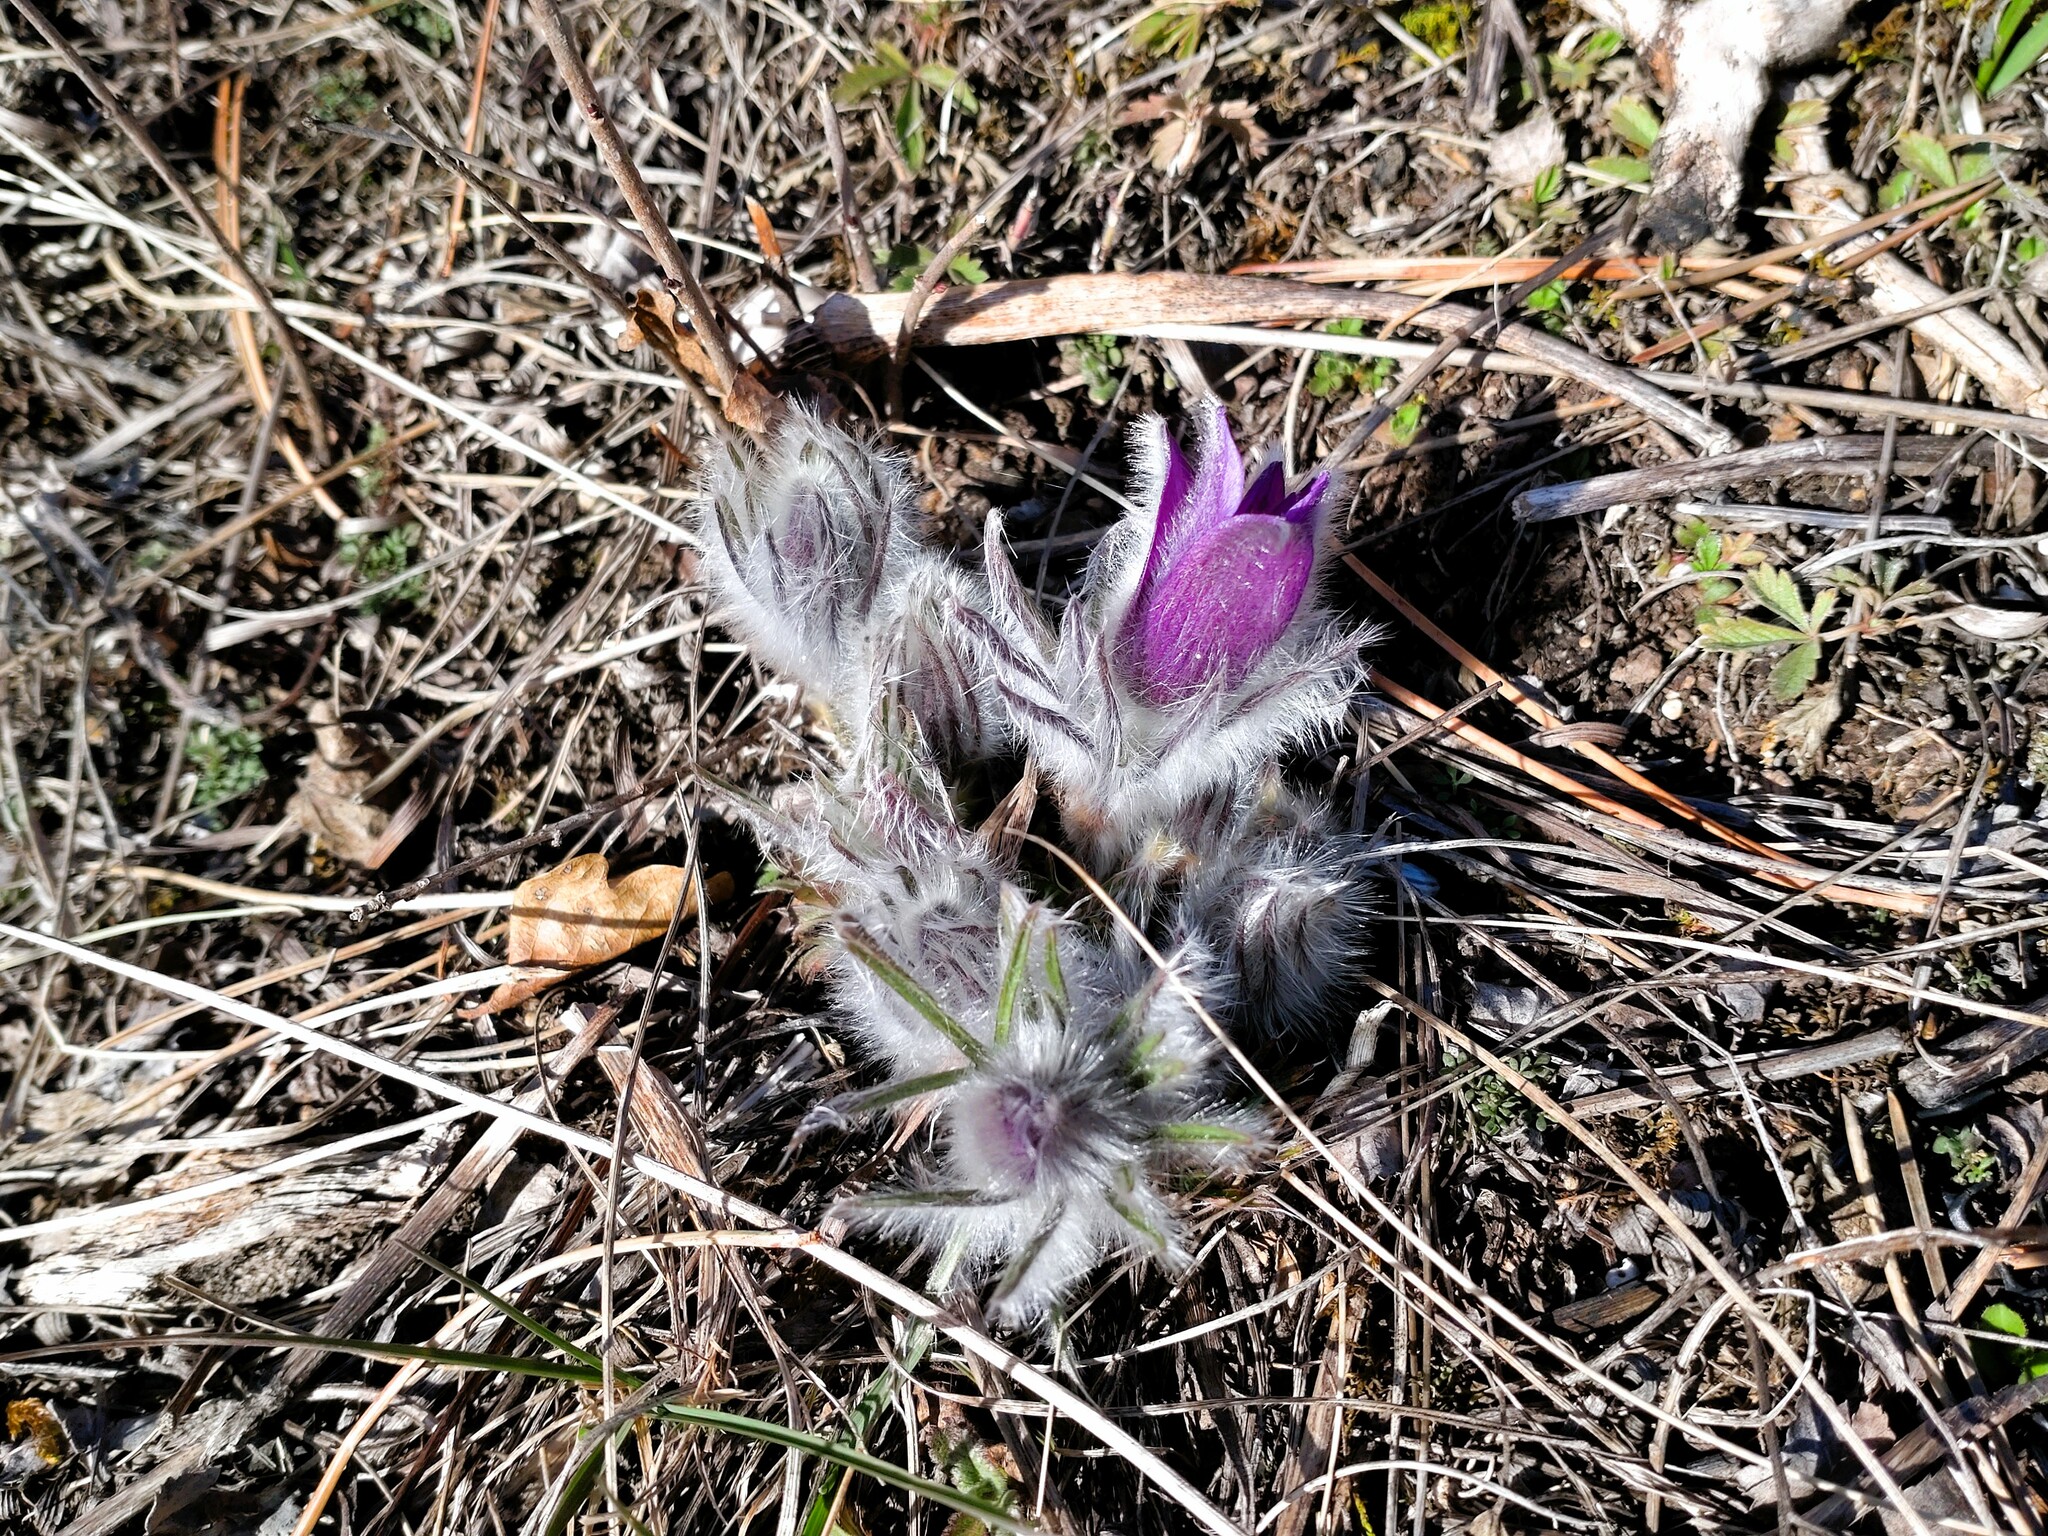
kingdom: Plantae
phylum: Tracheophyta
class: Magnoliopsida
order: Ranunculales
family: Ranunculaceae
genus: Pulsatilla
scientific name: Pulsatilla grandis
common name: Greater pasque flower
